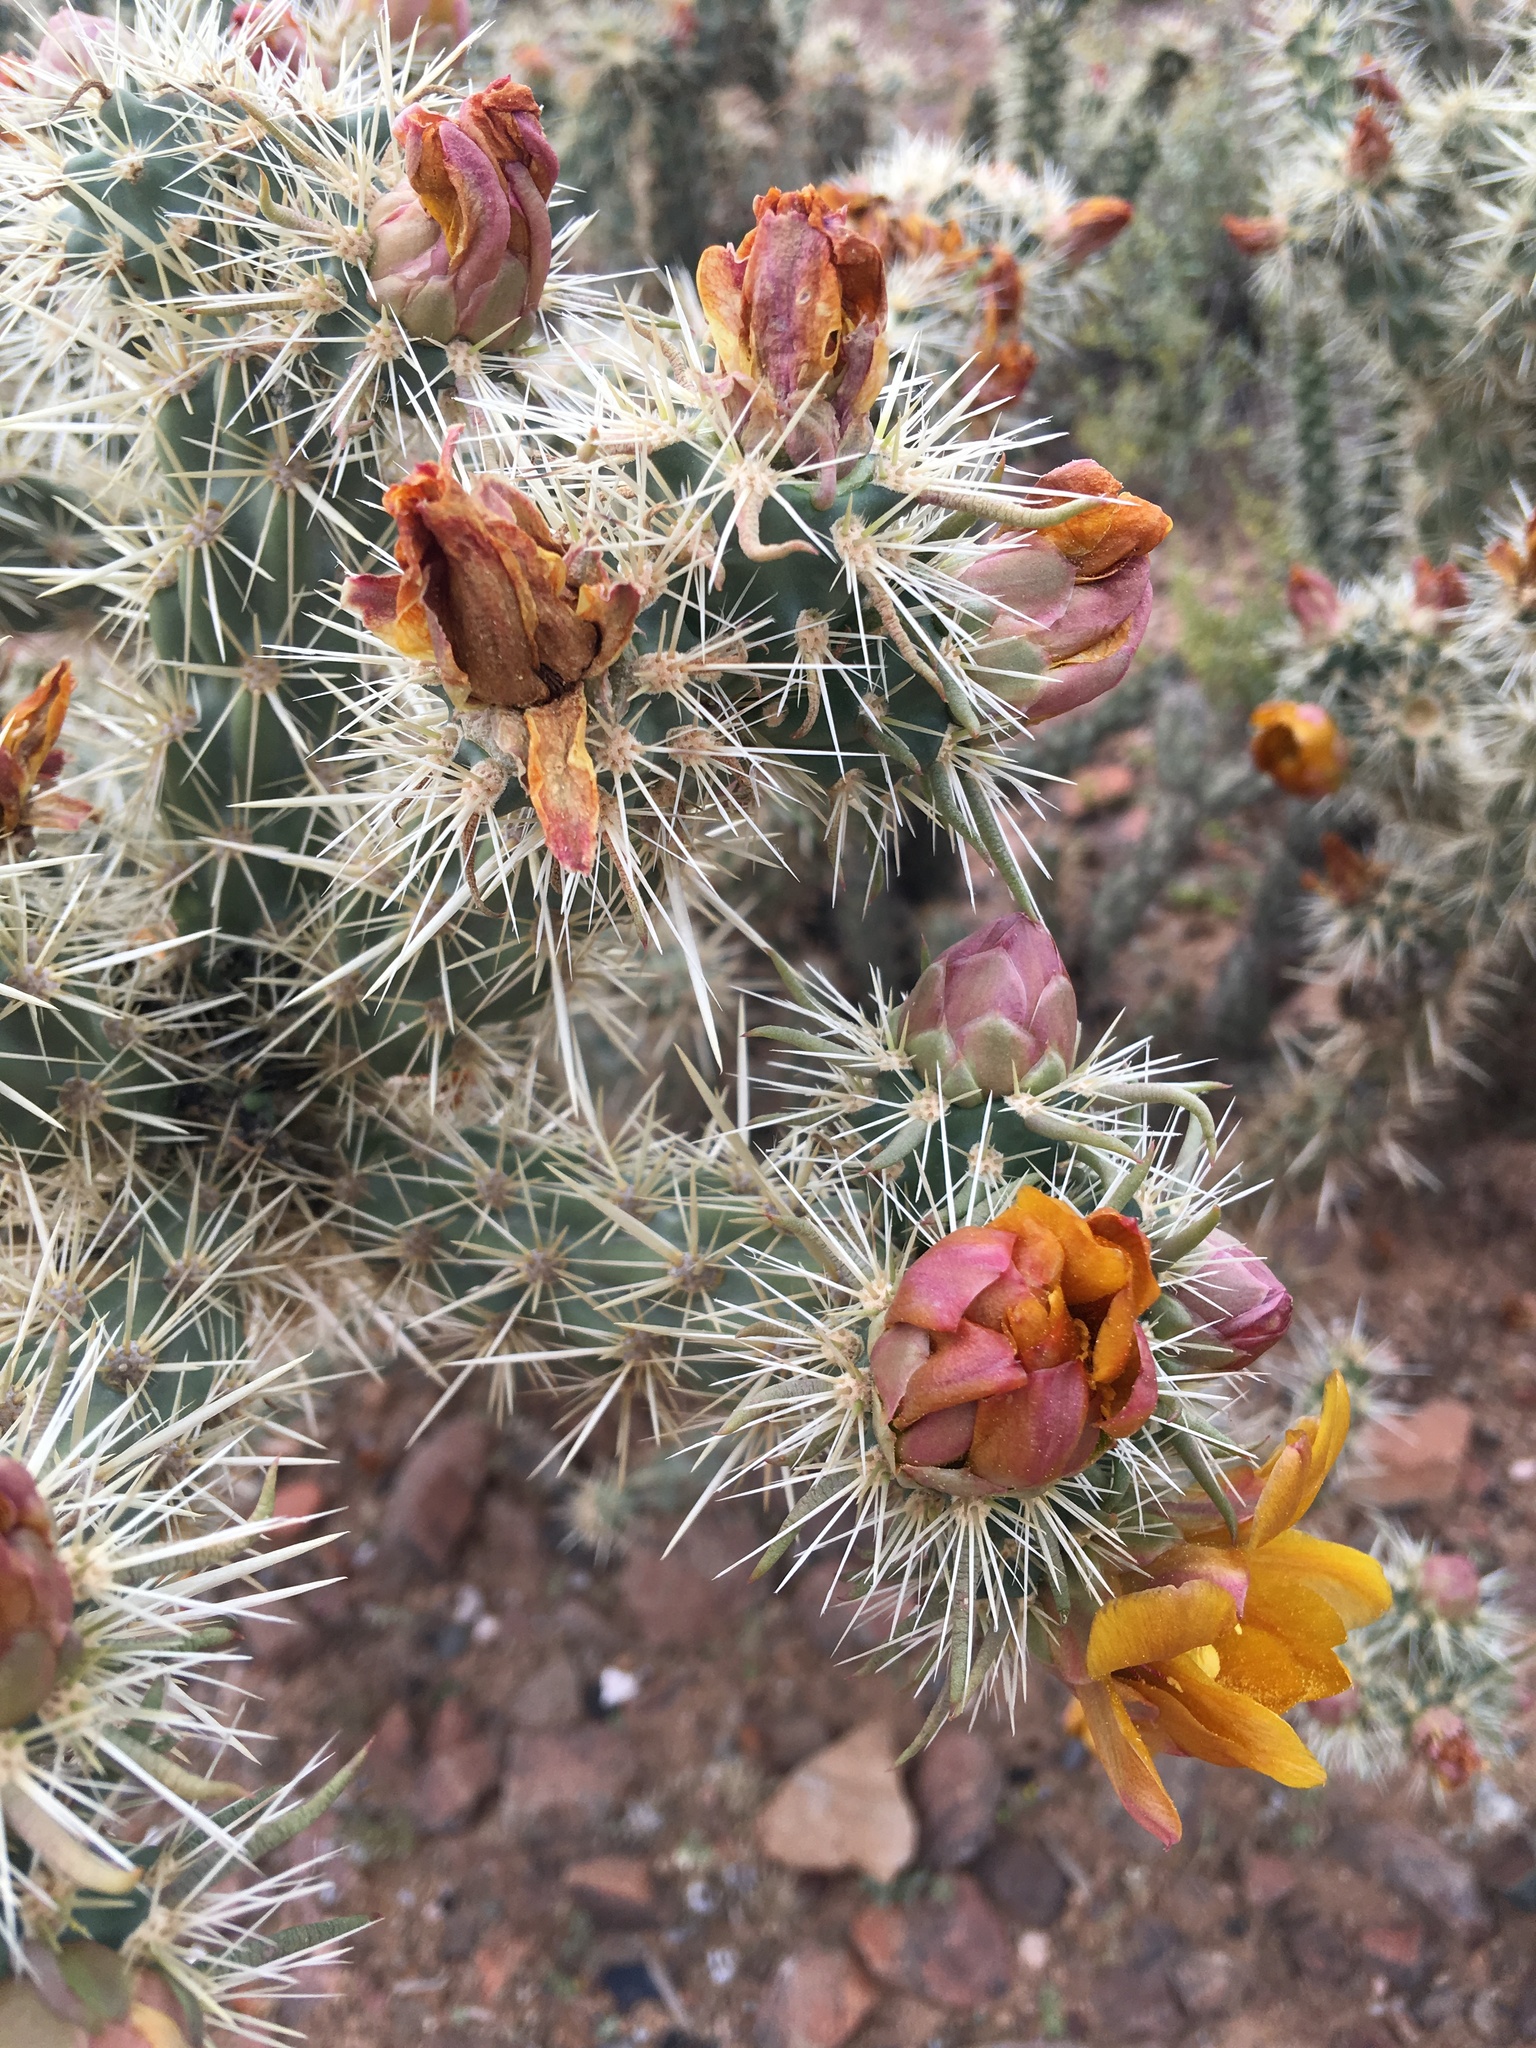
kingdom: Plantae
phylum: Tracheophyta
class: Magnoliopsida
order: Caryophyllales
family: Cactaceae
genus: Cylindropuntia
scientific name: Cylindropuntia acanthocarpa
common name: Buckhorn cholla
